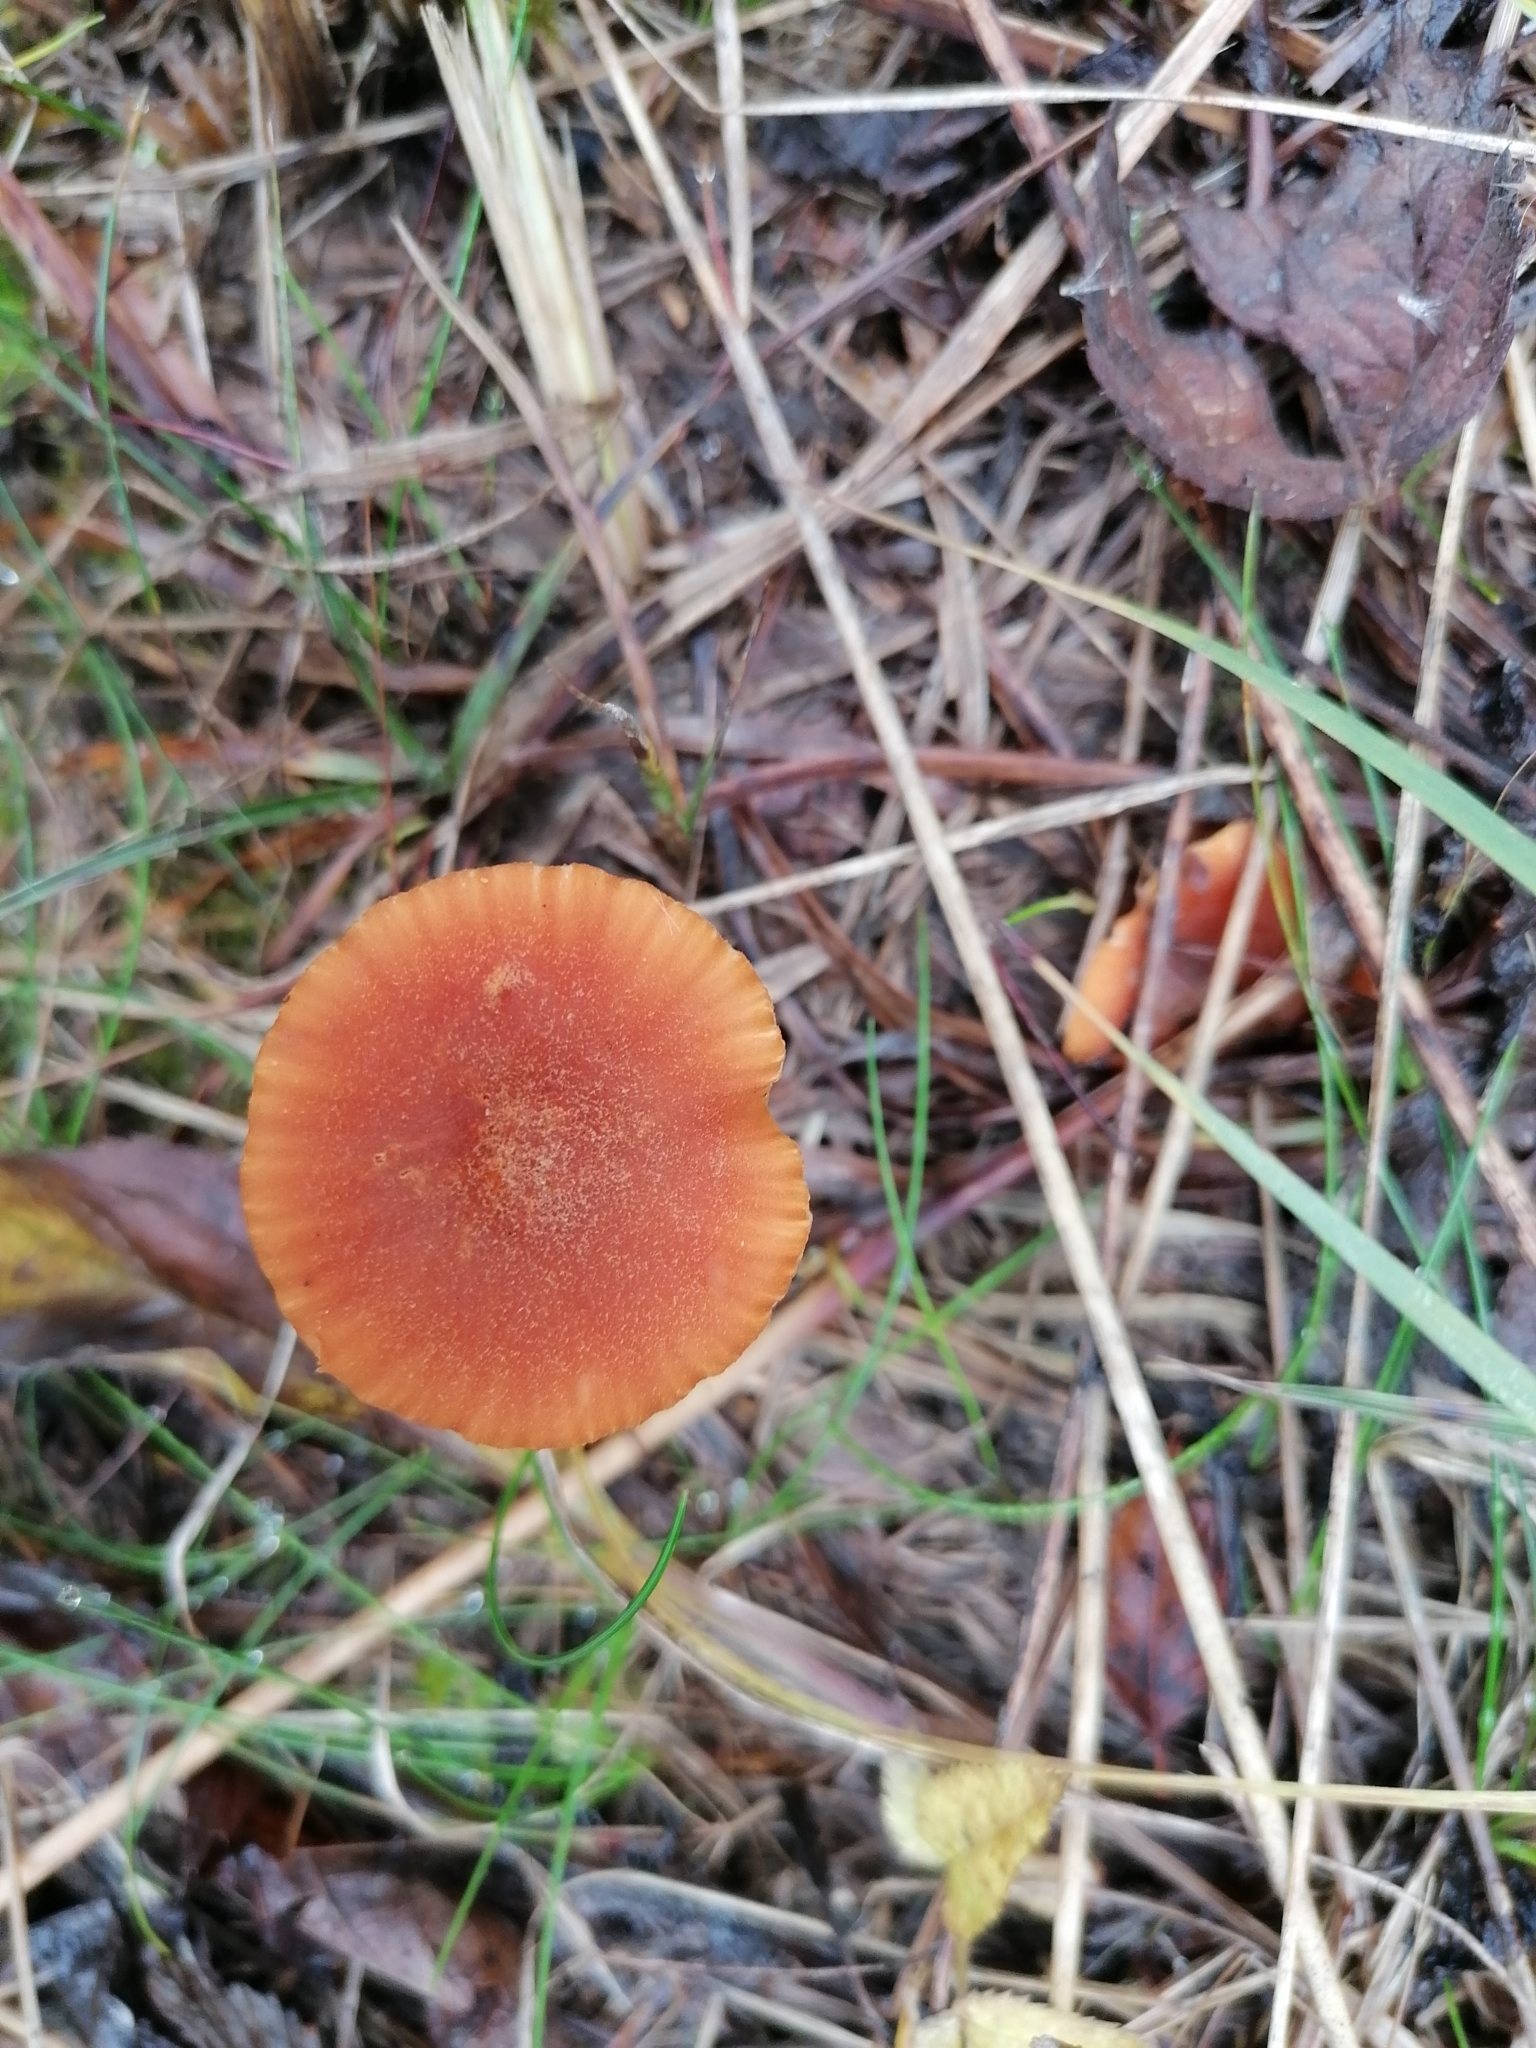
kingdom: Fungi
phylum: Basidiomycota
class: Agaricomycetes
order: Agaricales
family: Hydnangiaceae
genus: Laccaria
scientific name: Laccaria laccata
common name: Deceiver
